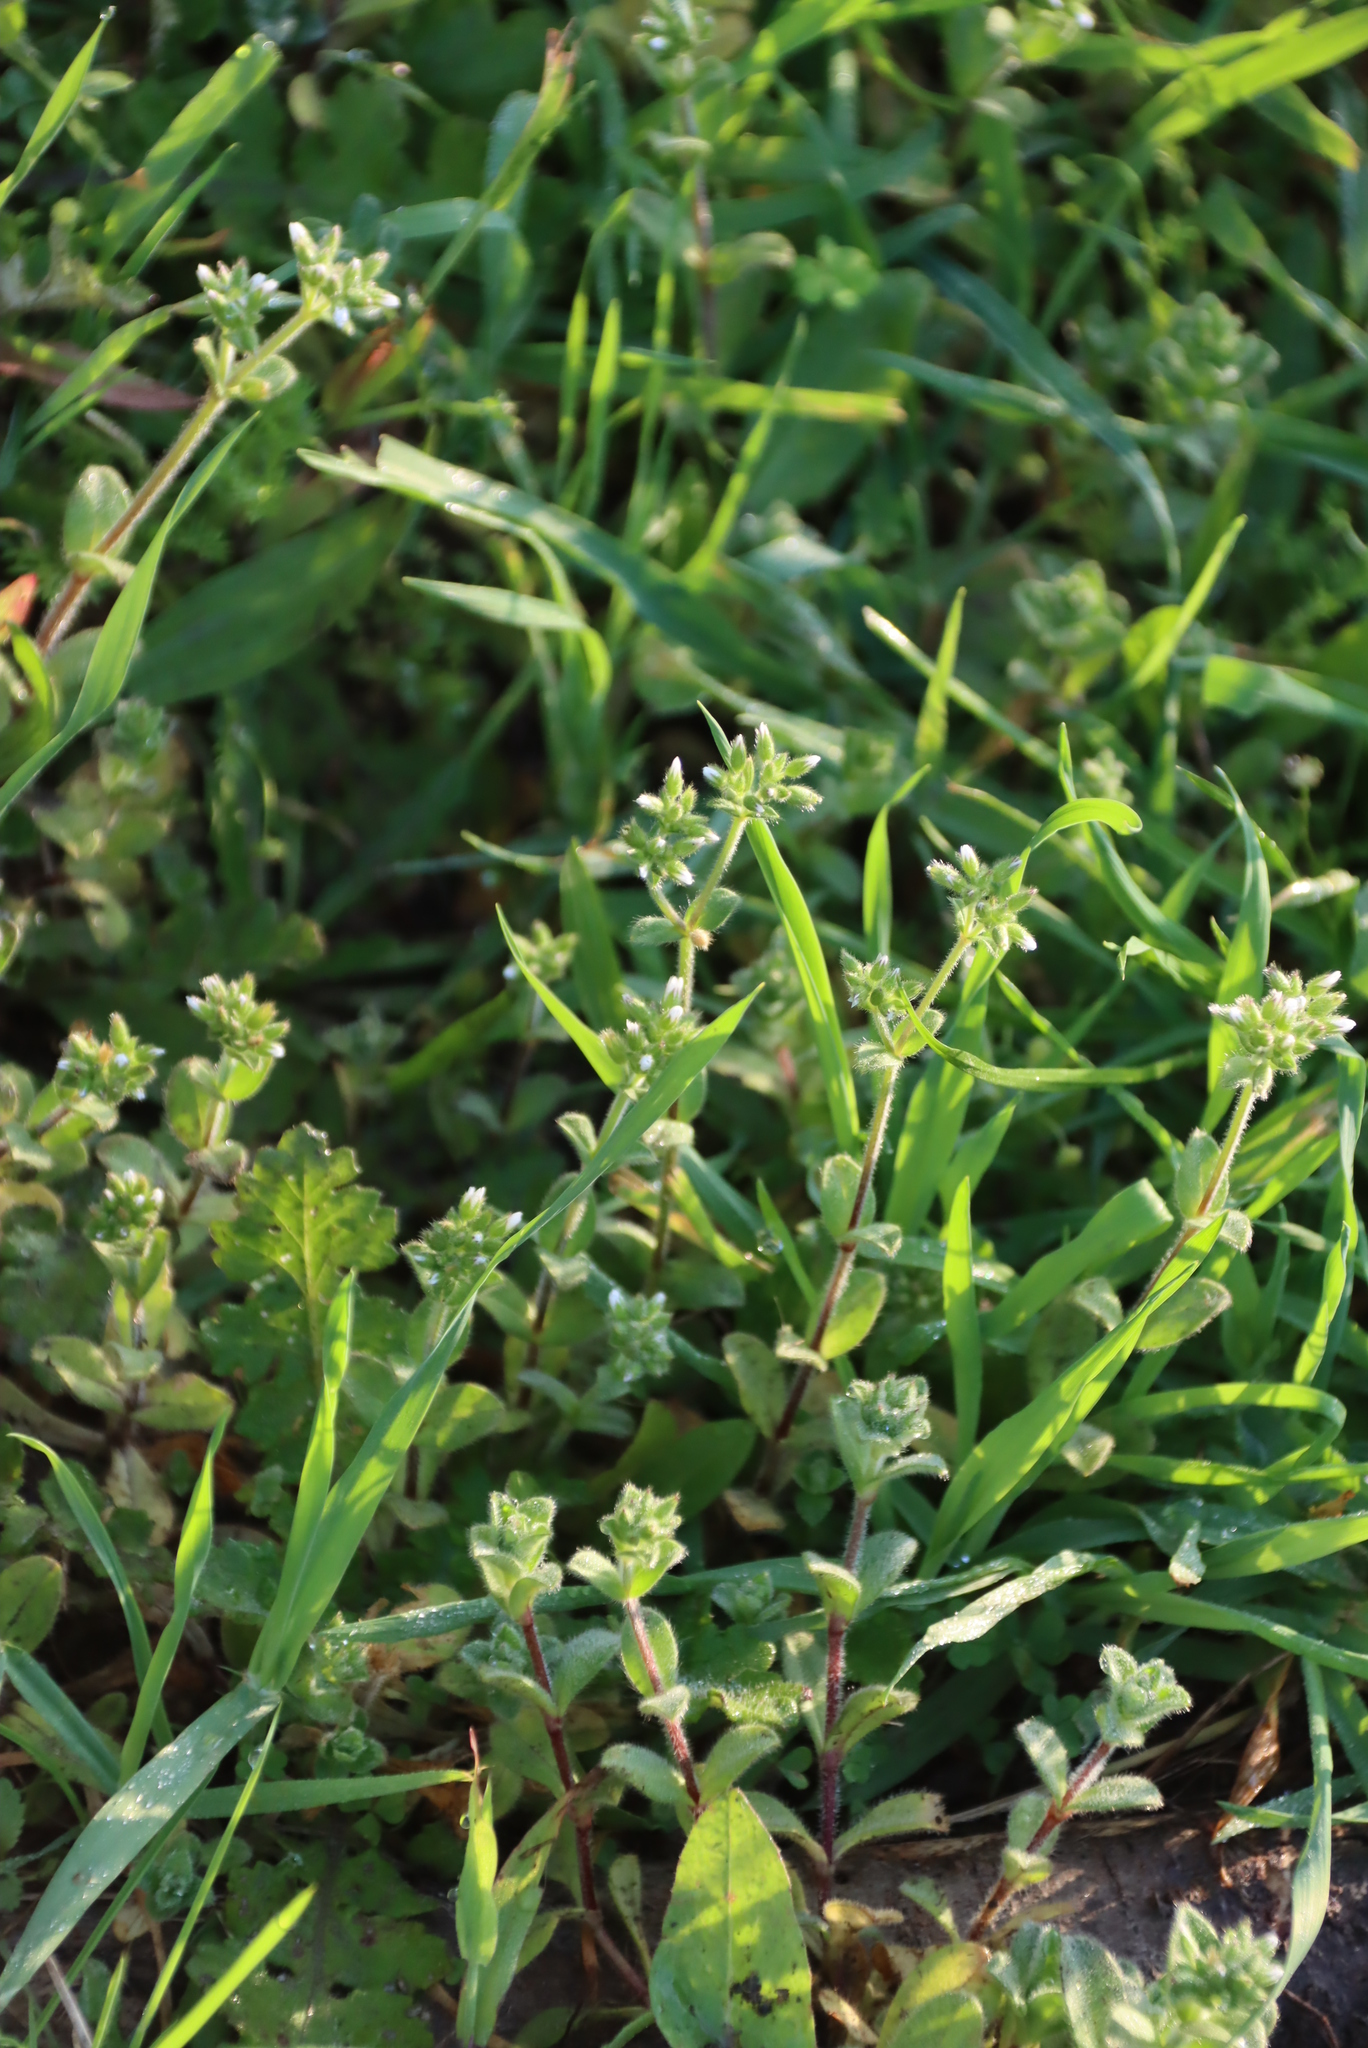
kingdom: Plantae
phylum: Tracheophyta
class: Magnoliopsida
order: Caryophyllales
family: Caryophyllaceae
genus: Cerastium
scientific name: Cerastium glomeratum
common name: Sticky chickweed
